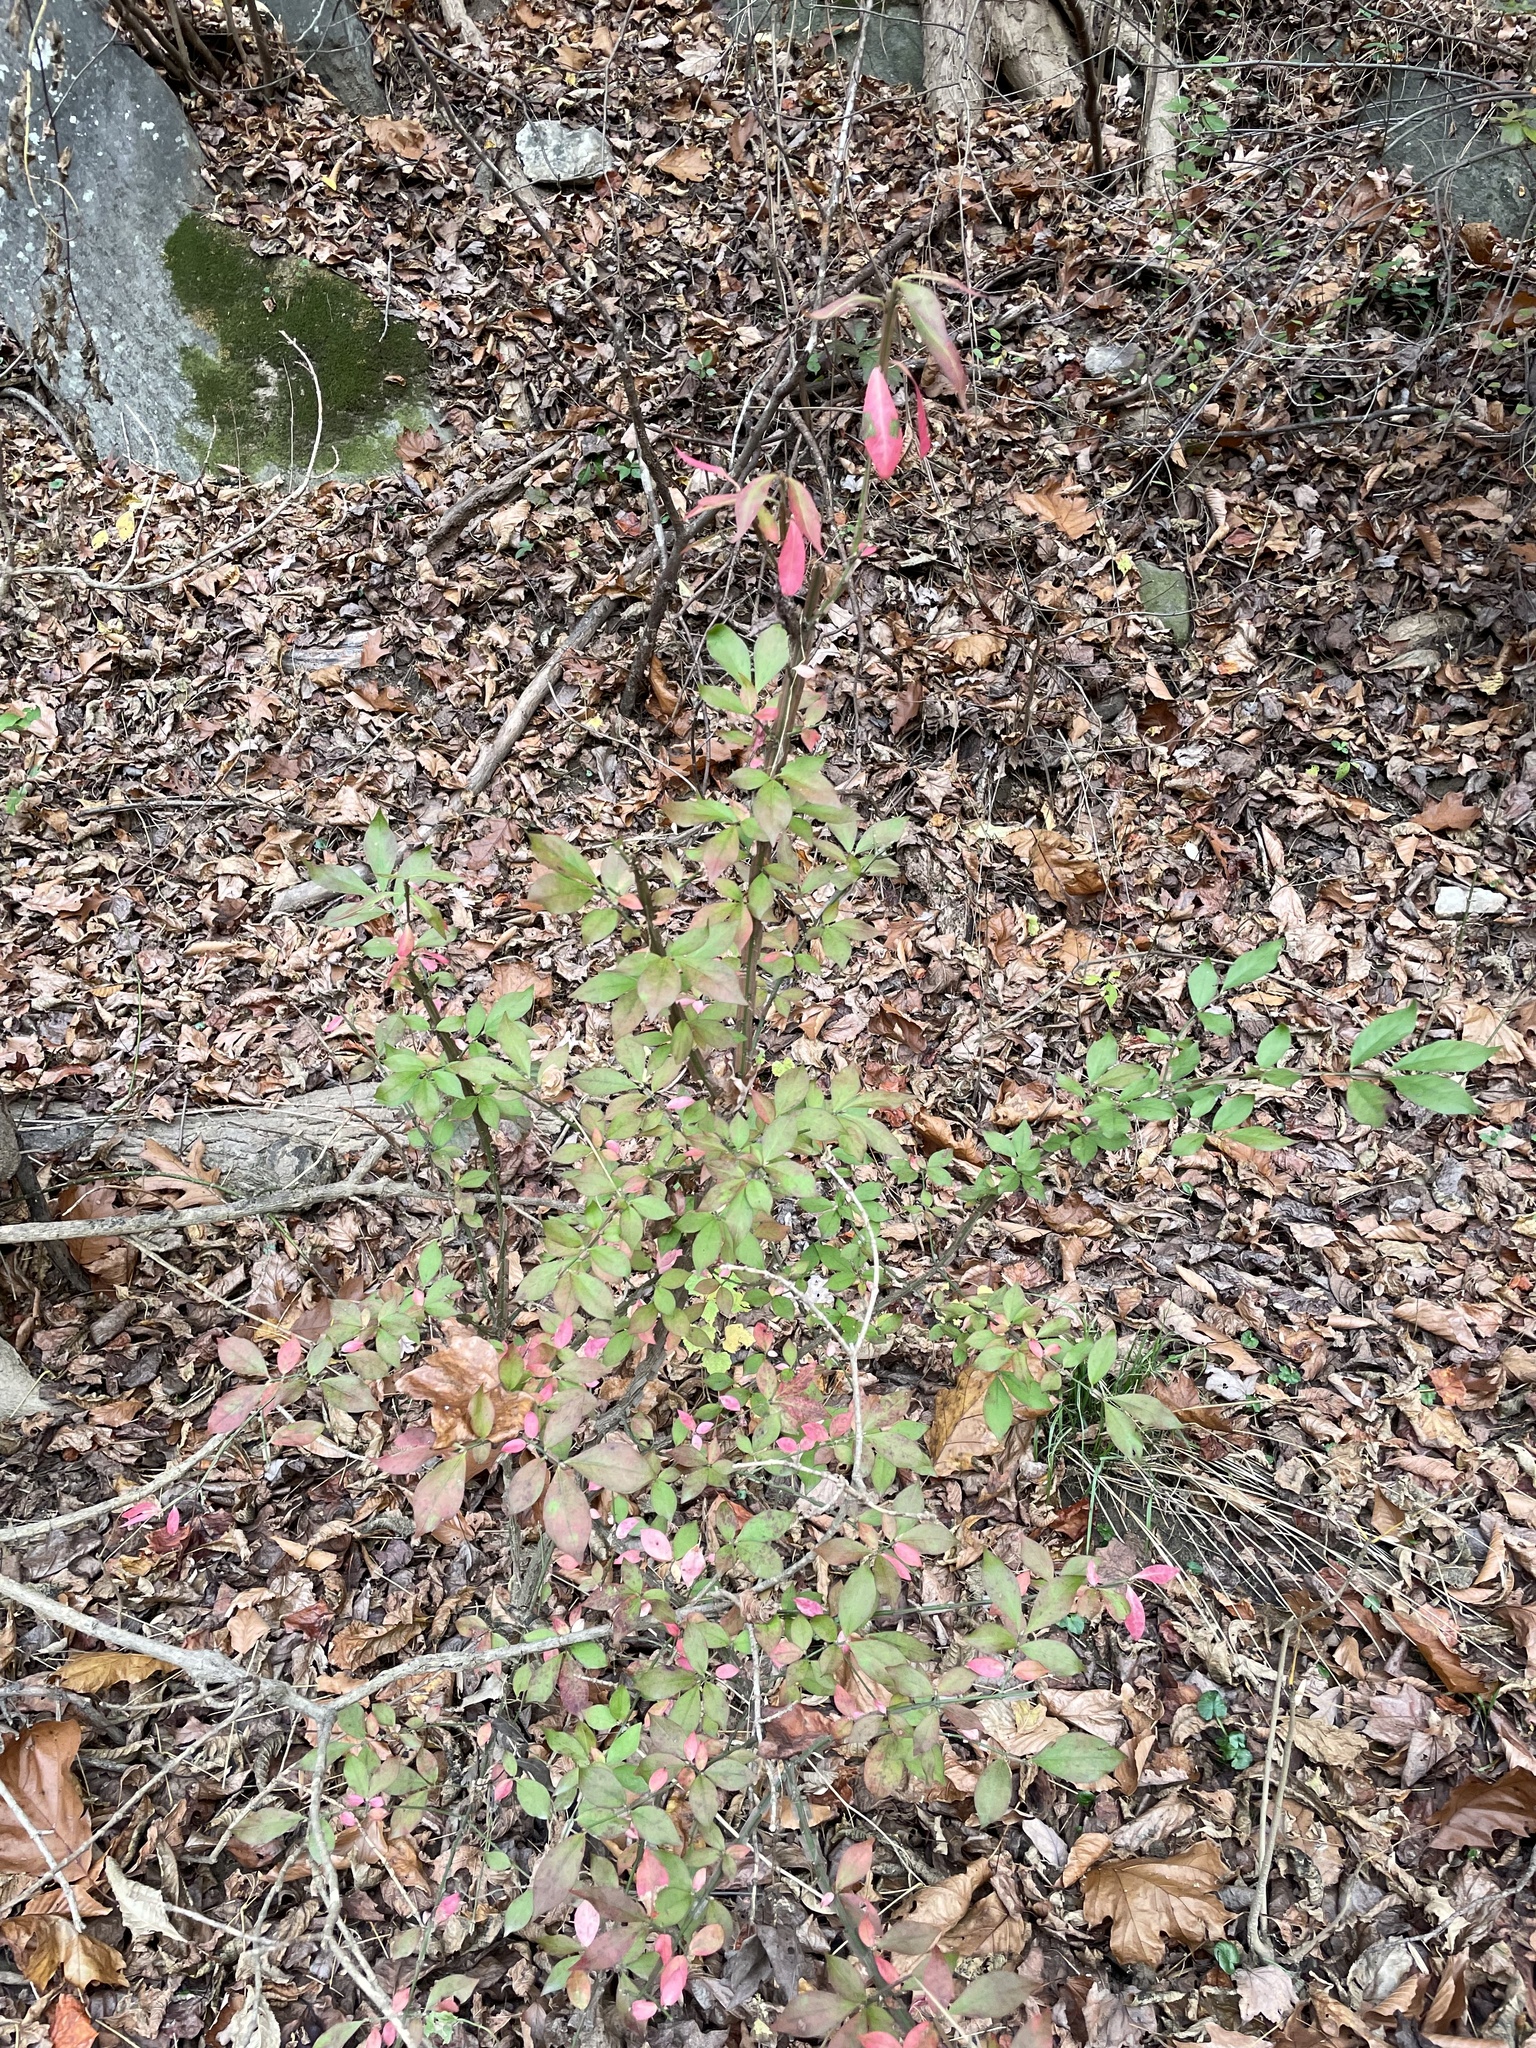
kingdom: Plantae
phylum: Tracheophyta
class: Magnoliopsida
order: Celastrales
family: Celastraceae
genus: Euonymus
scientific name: Euonymus alatus
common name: Winged euonymus
